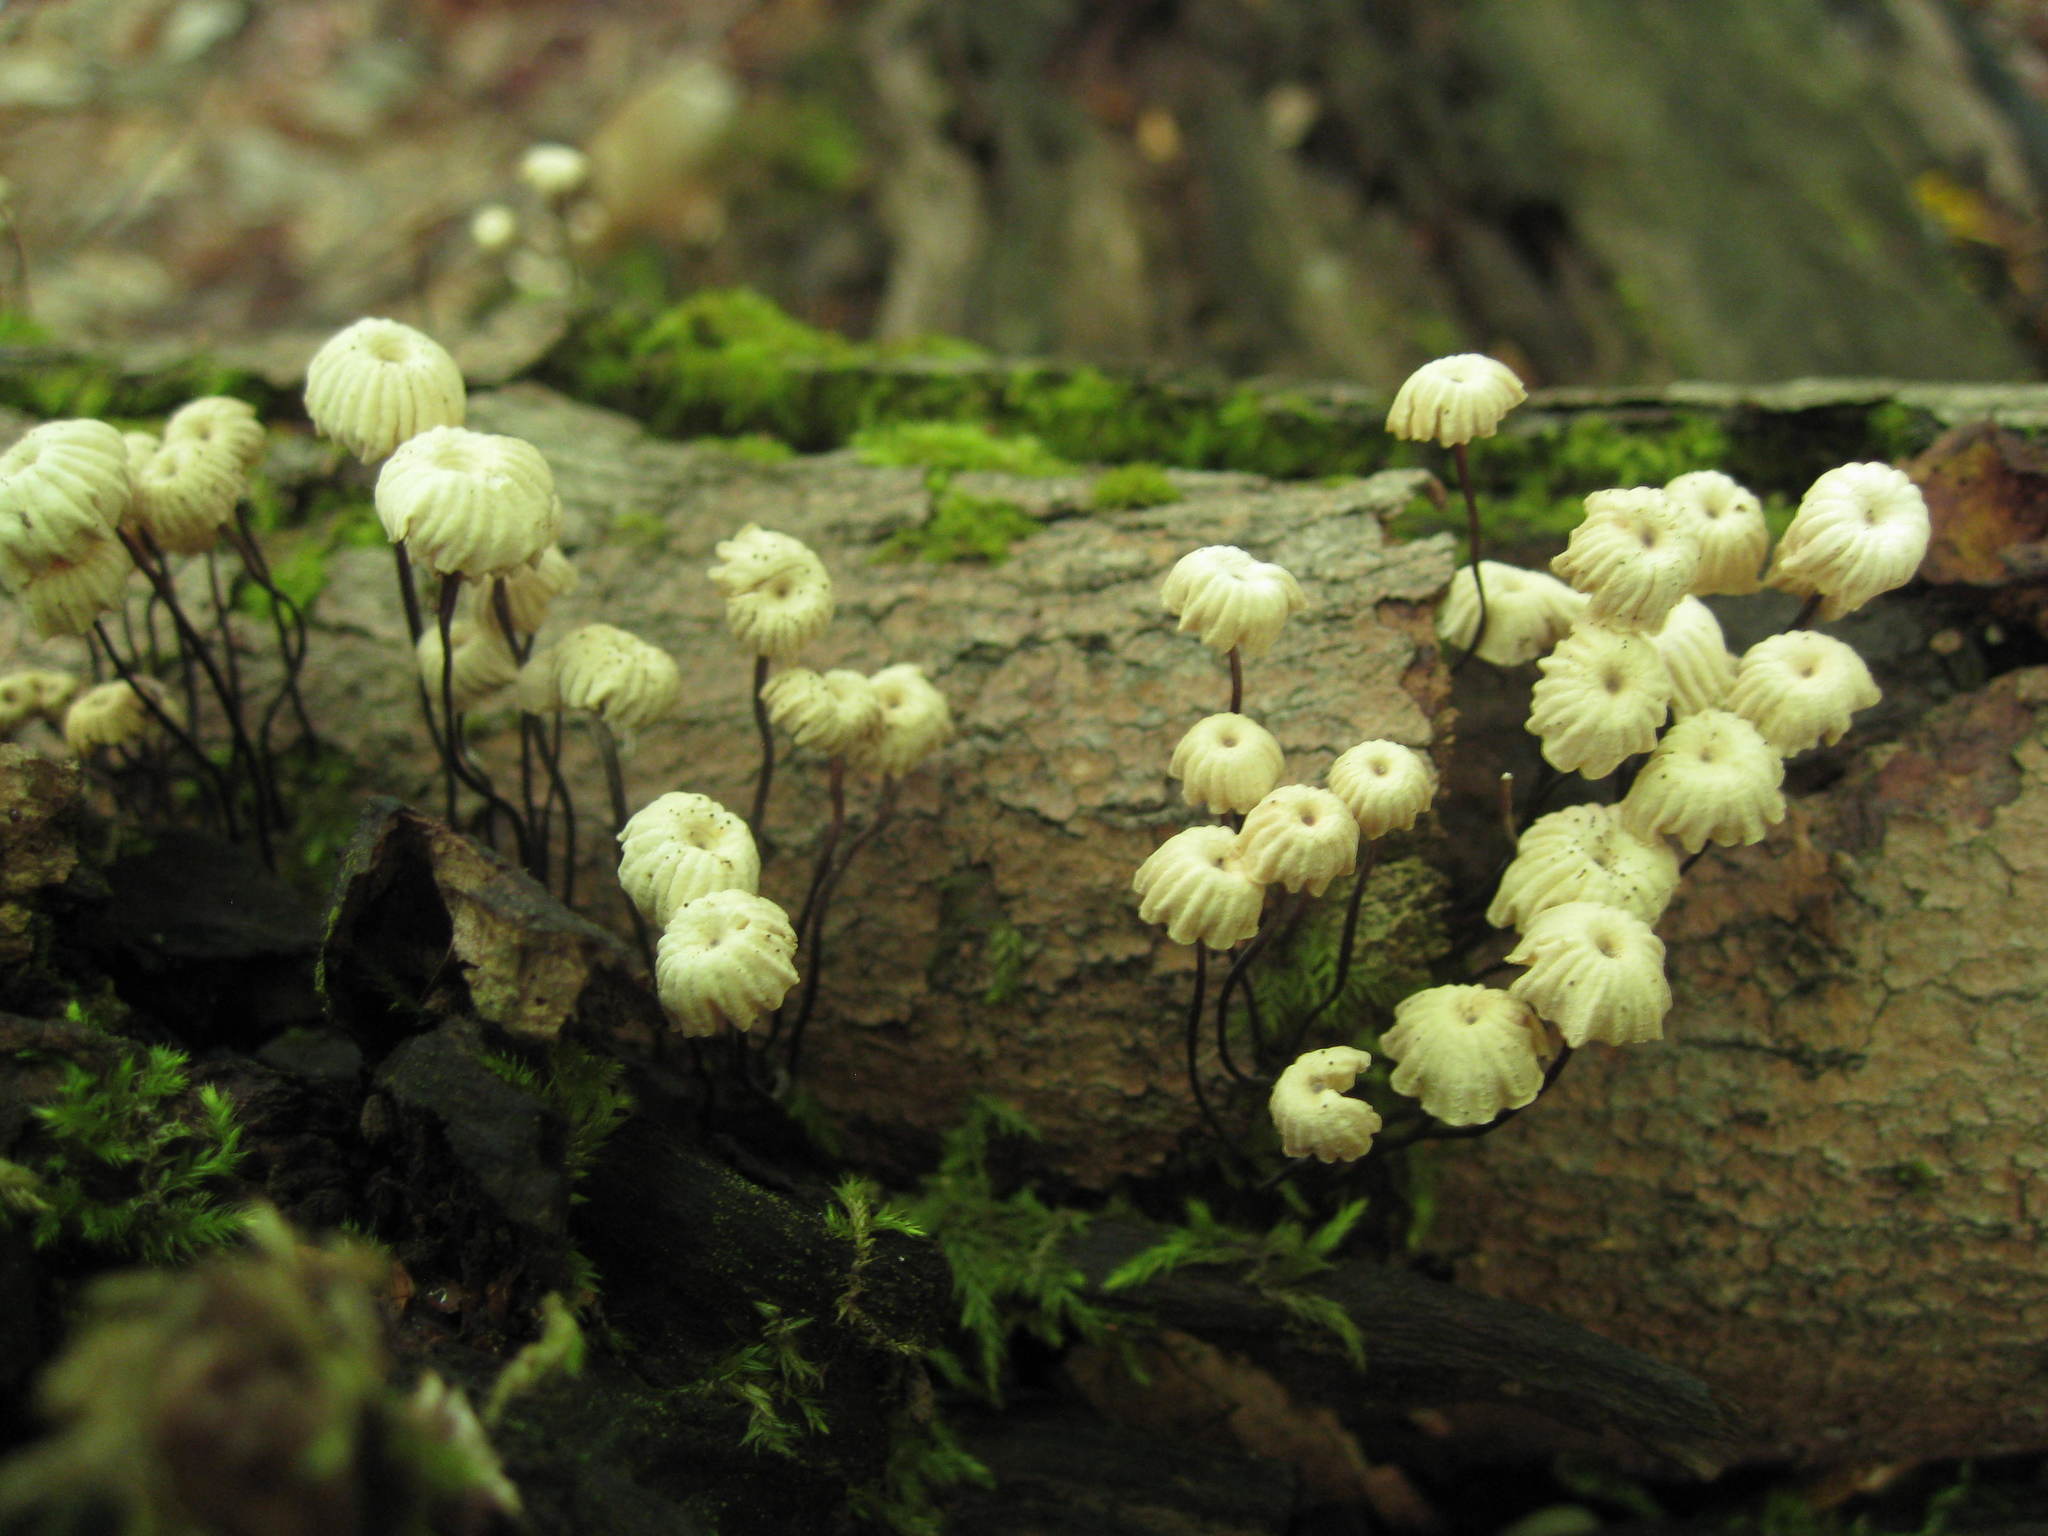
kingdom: Fungi
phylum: Basidiomycota
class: Agaricomycetes
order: Agaricales
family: Marasmiaceae
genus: Marasmius
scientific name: Marasmius rotula
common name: Collared parachute
